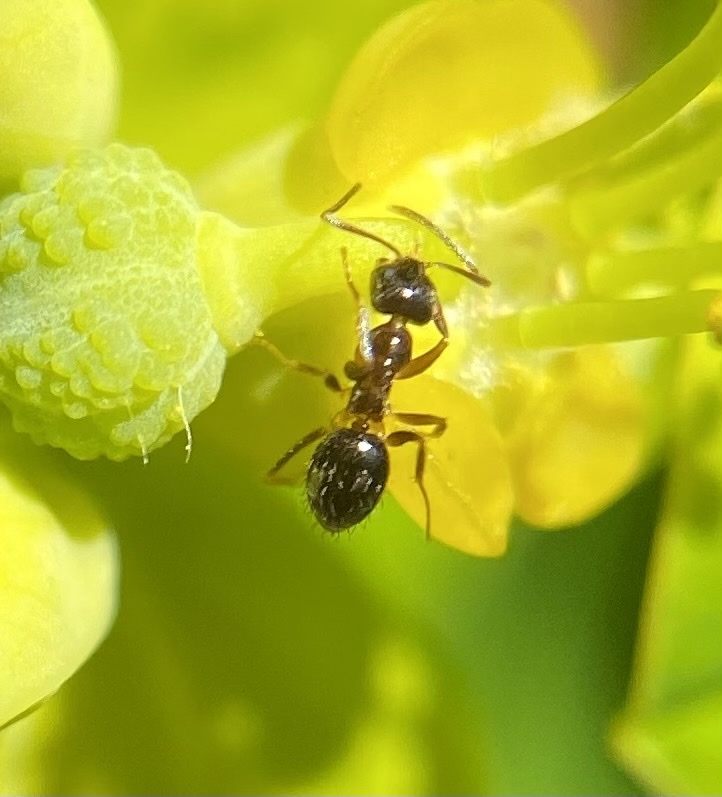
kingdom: Animalia
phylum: Arthropoda
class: Insecta
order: Hymenoptera
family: Formicidae
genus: Prenolepis
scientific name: Prenolepis imparis
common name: Small honey ant
